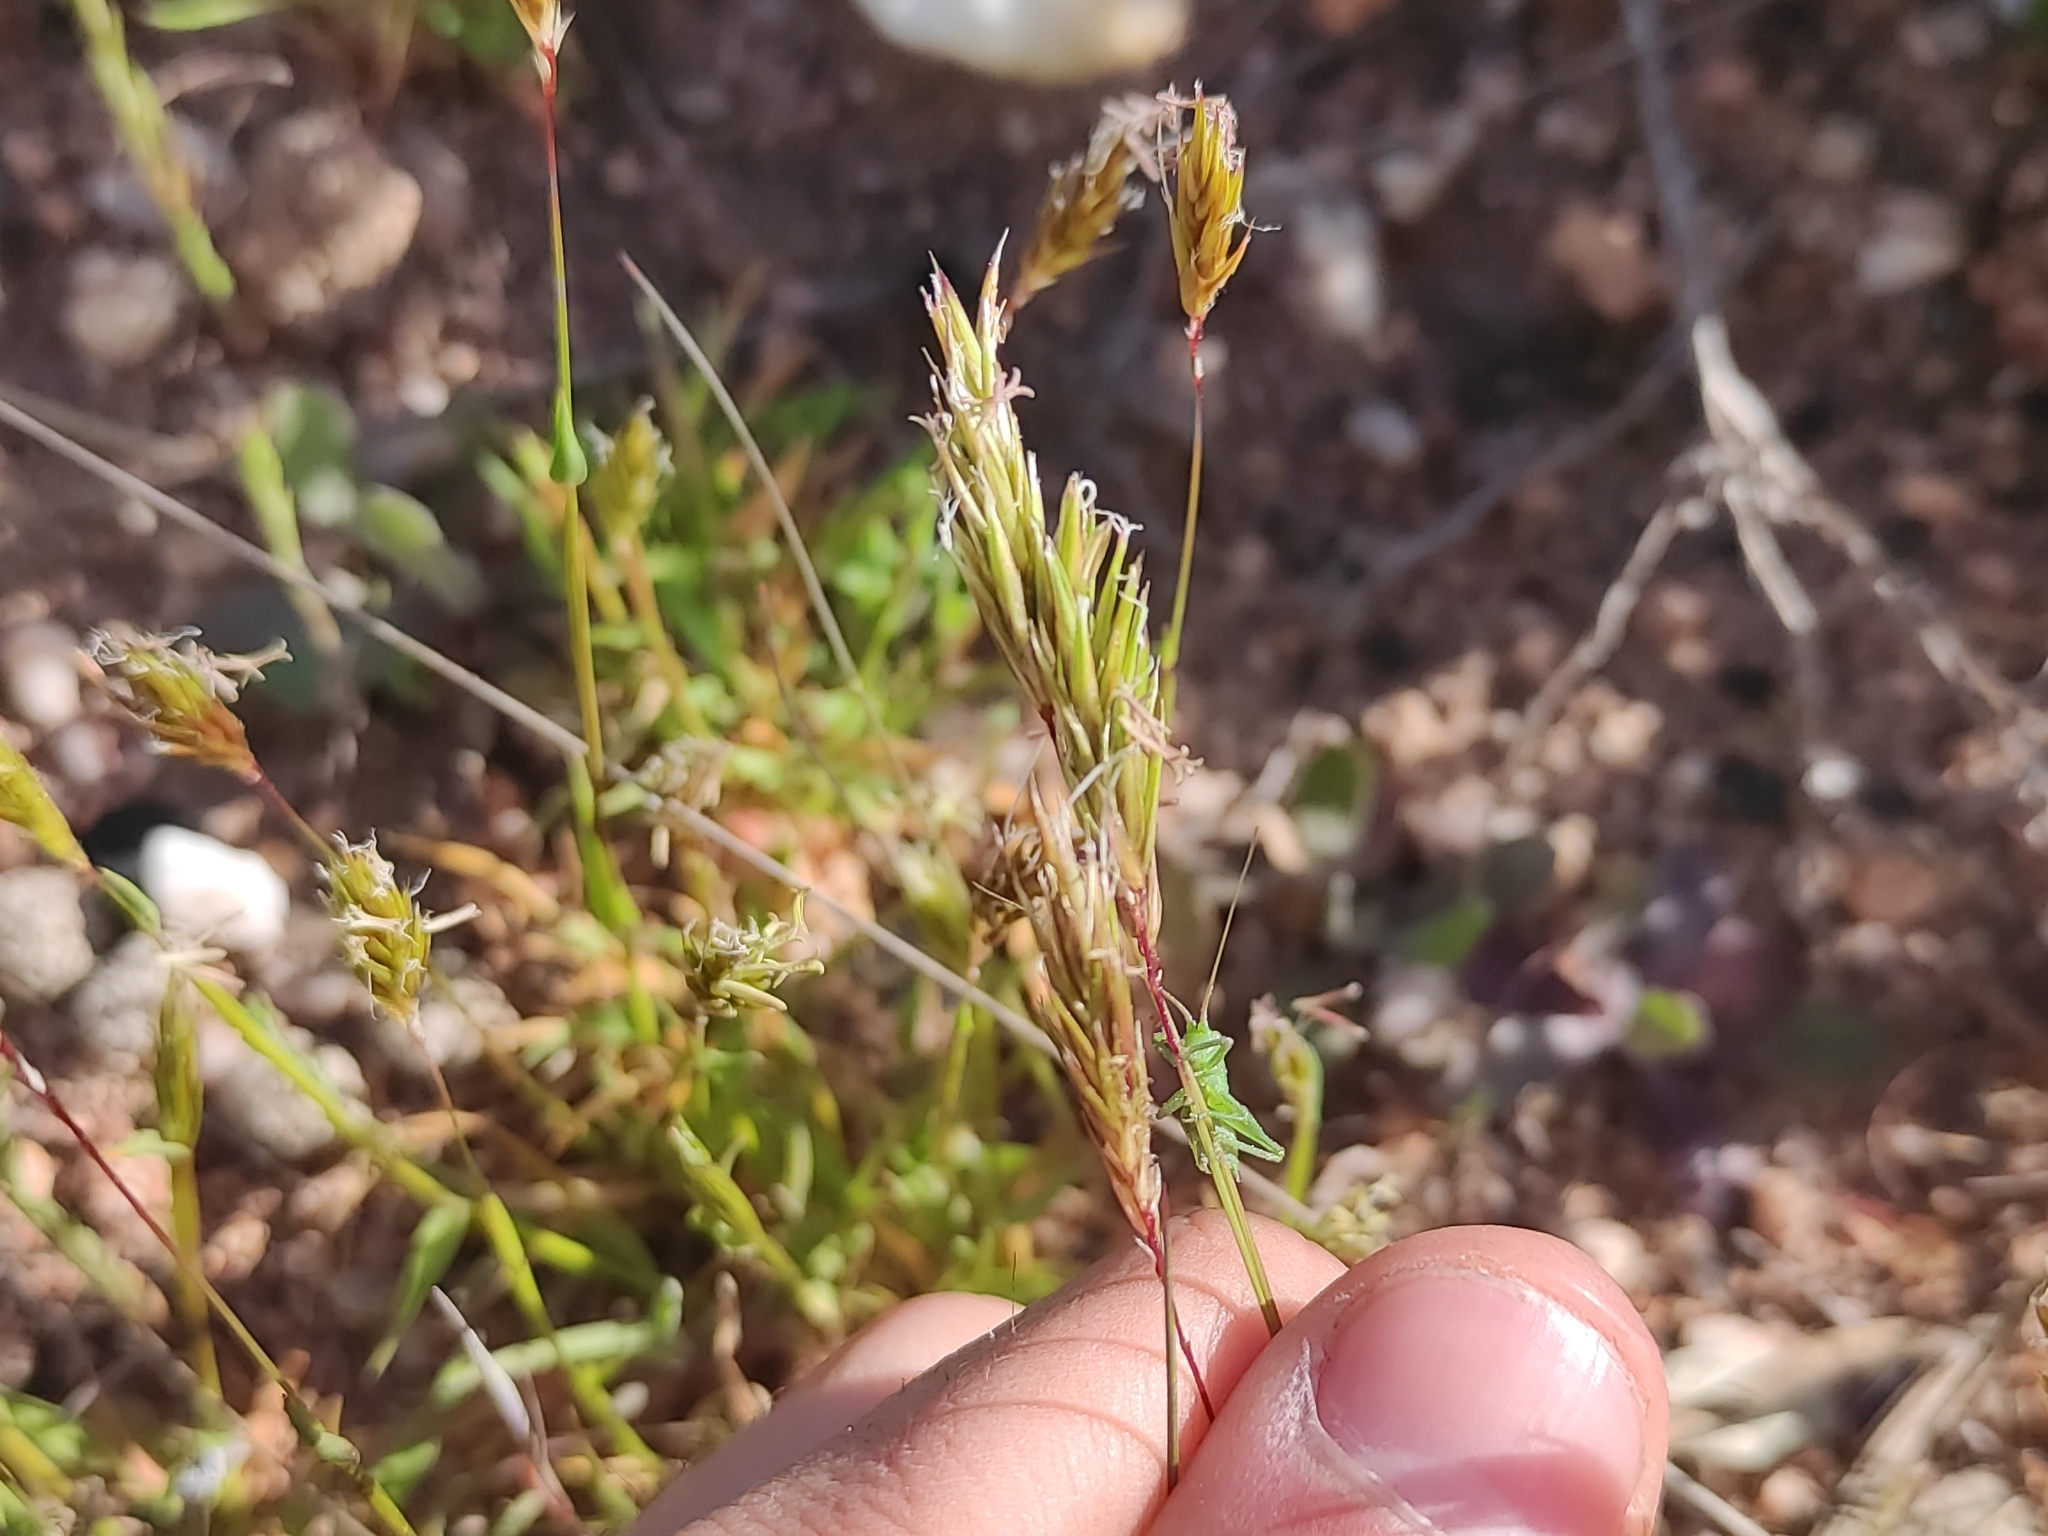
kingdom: Plantae
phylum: Tracheophyta
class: Liliopsida
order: Poales
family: Poaceae
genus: Anthoxanthum
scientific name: Anthoxanthum odoratum
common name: Sweet vernalgrass
